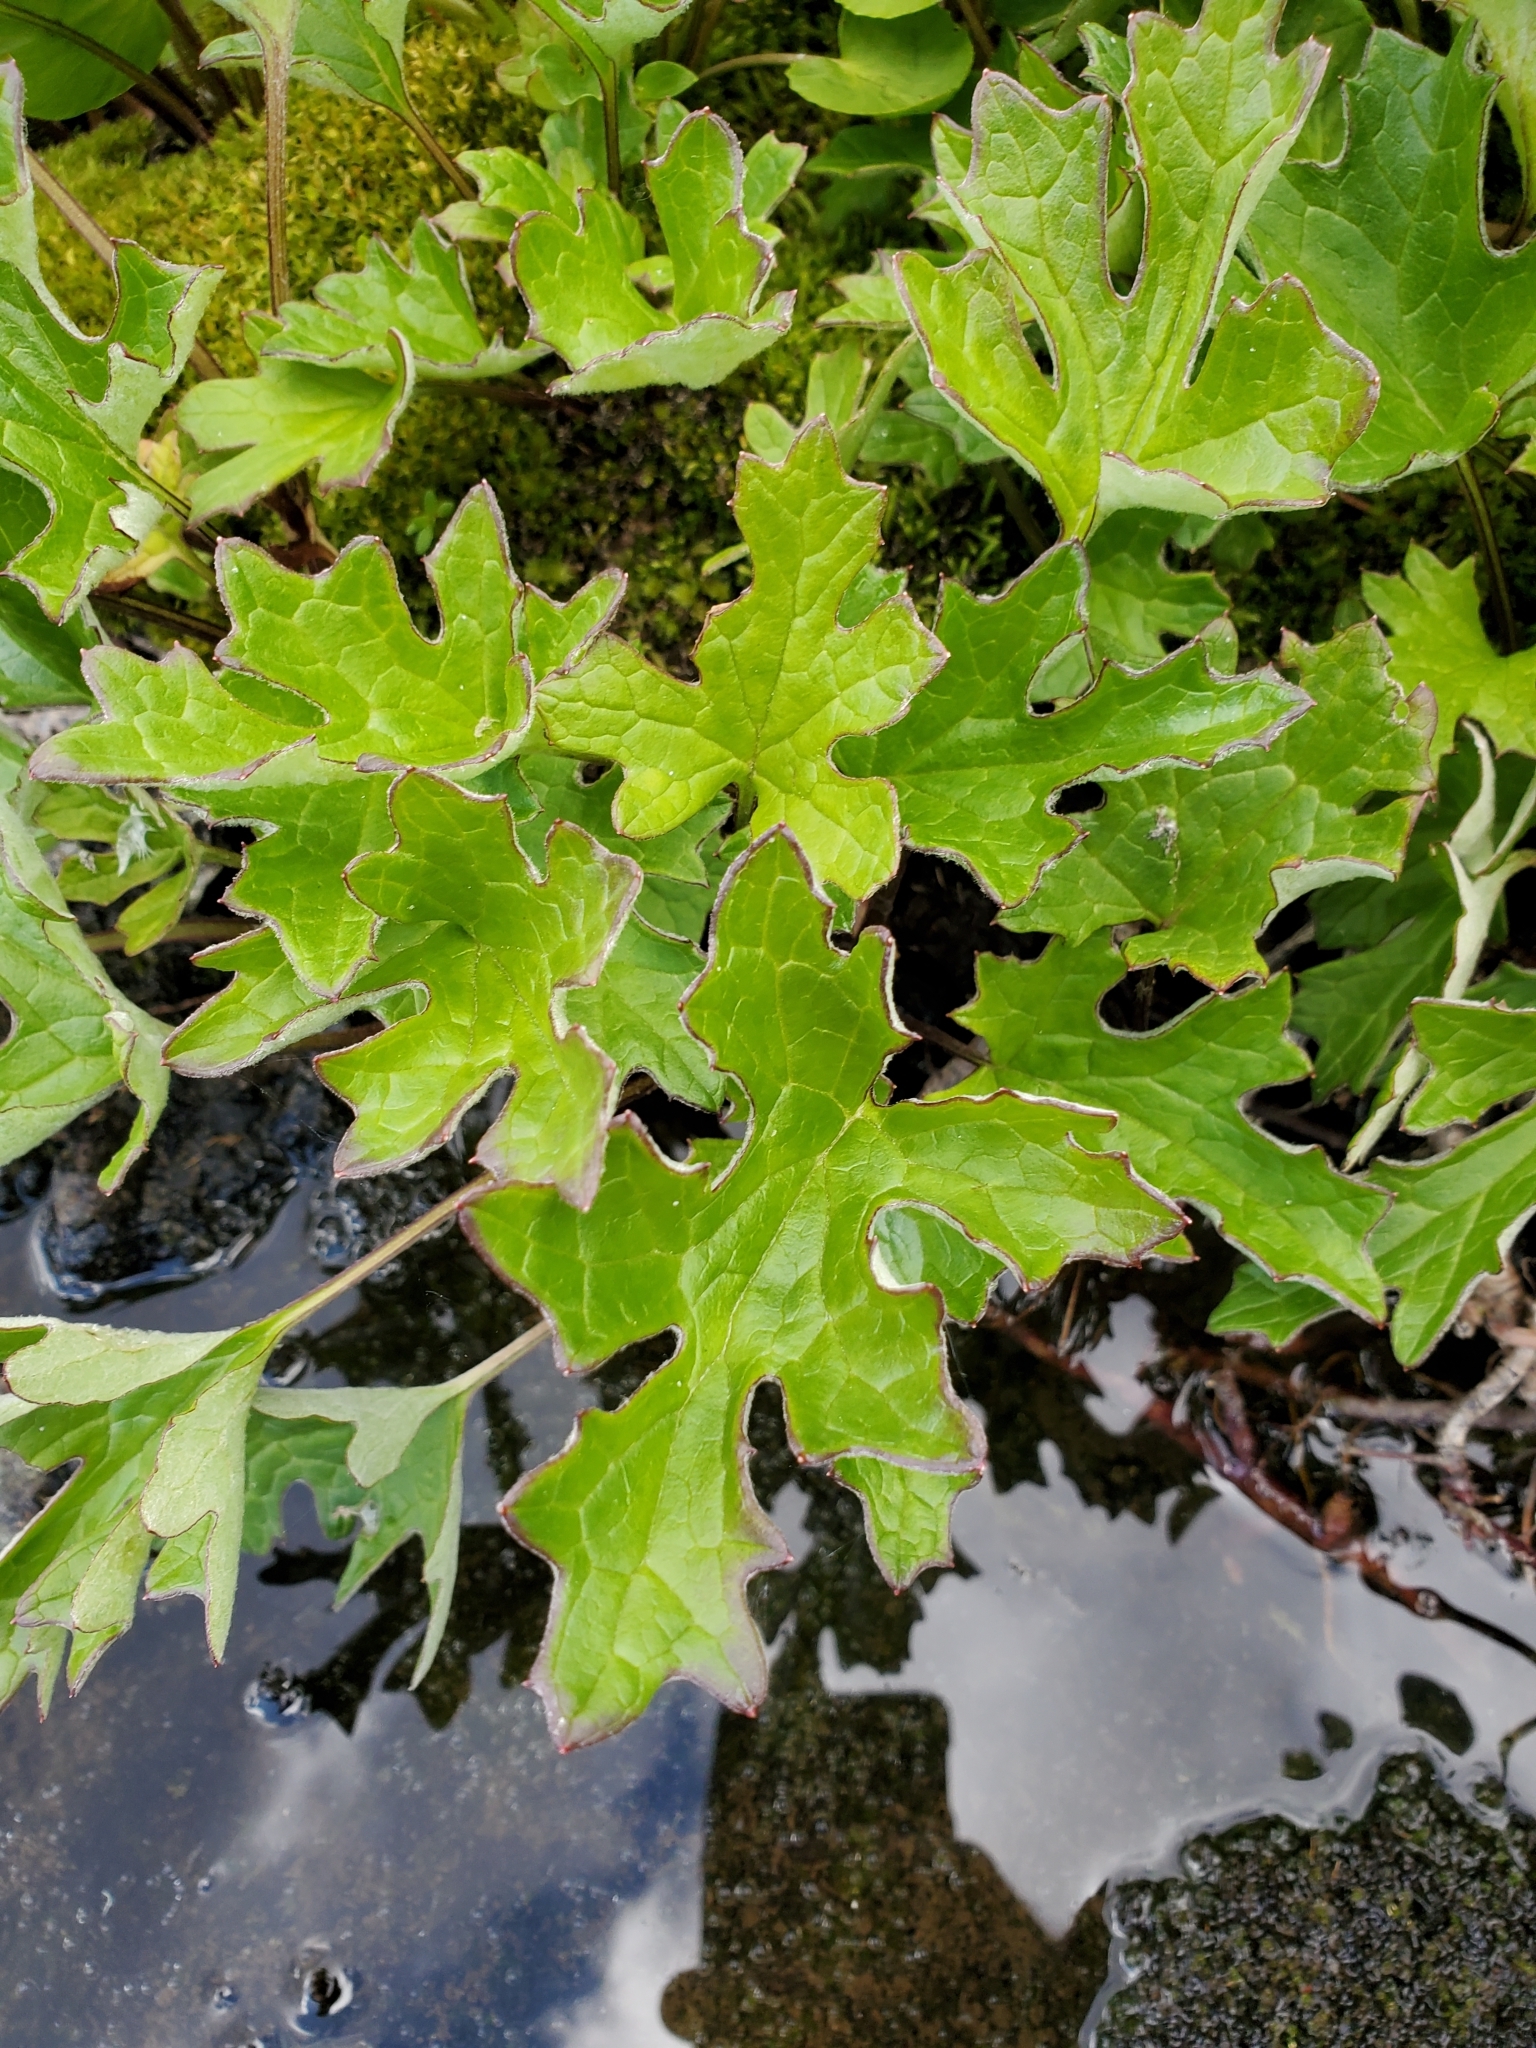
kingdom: Plantae
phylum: Tracheophyta
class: Magnoliopsida
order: Asterales
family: Asteraceae
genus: Petasites
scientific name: Petasites frigidus
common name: Arctic butterbur
